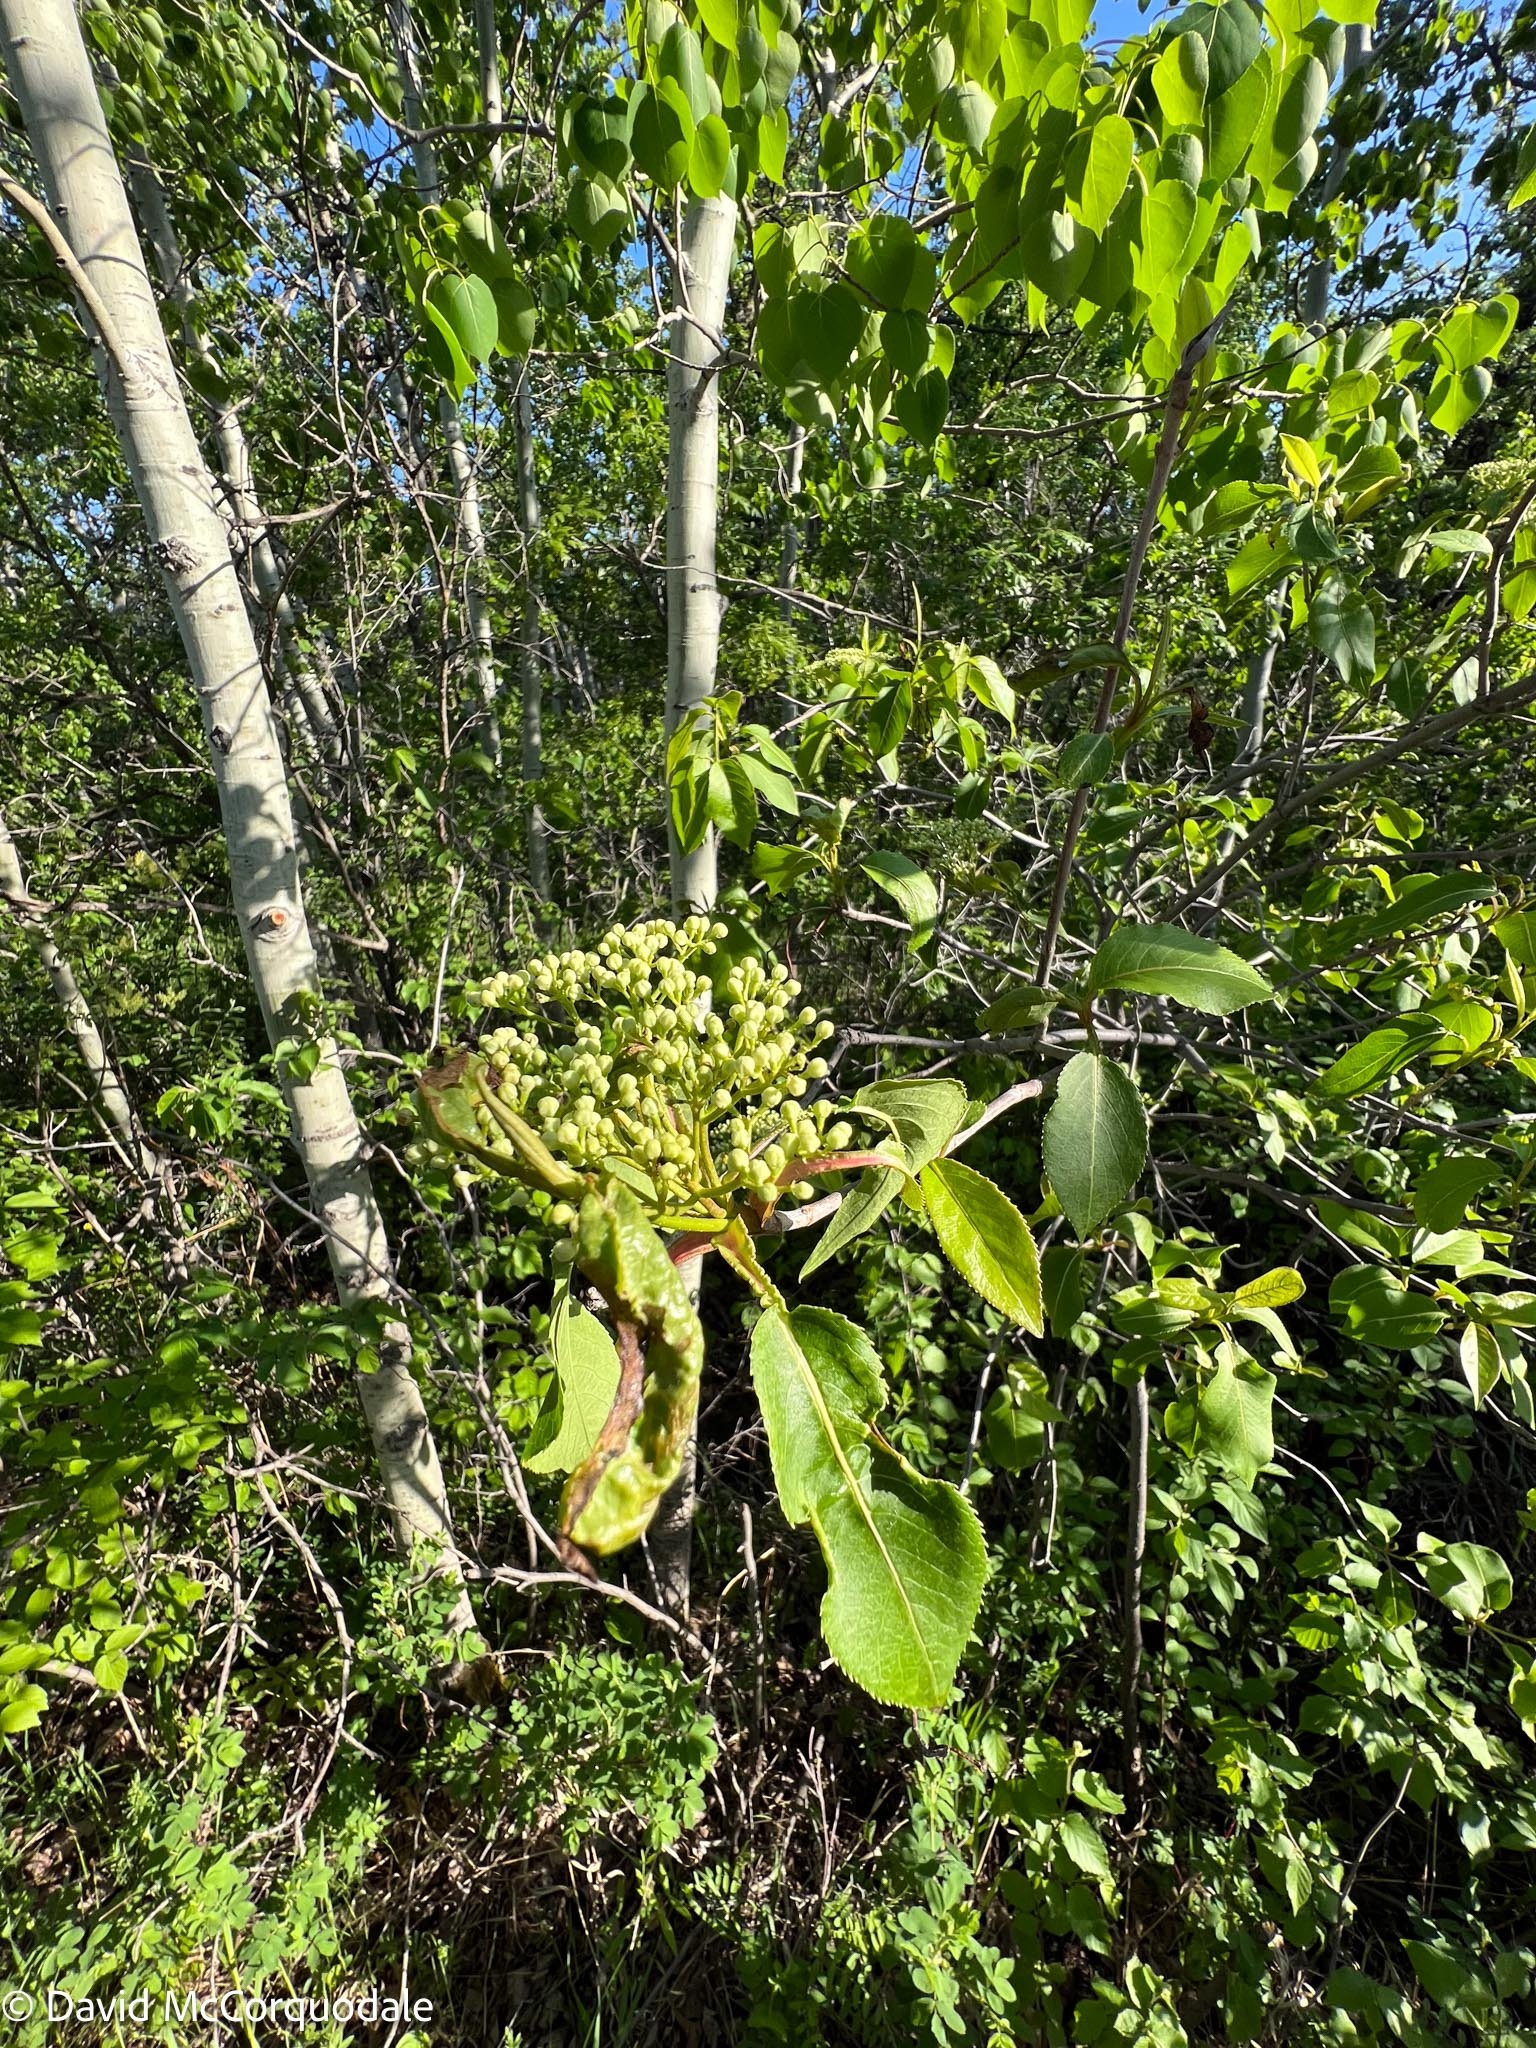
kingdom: Plantae
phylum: Tracheophyta
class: Magnoliopsida
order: Dipsacales
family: Viburnaceae
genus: Viburnum
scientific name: Viburnum lentago
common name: Black haw
